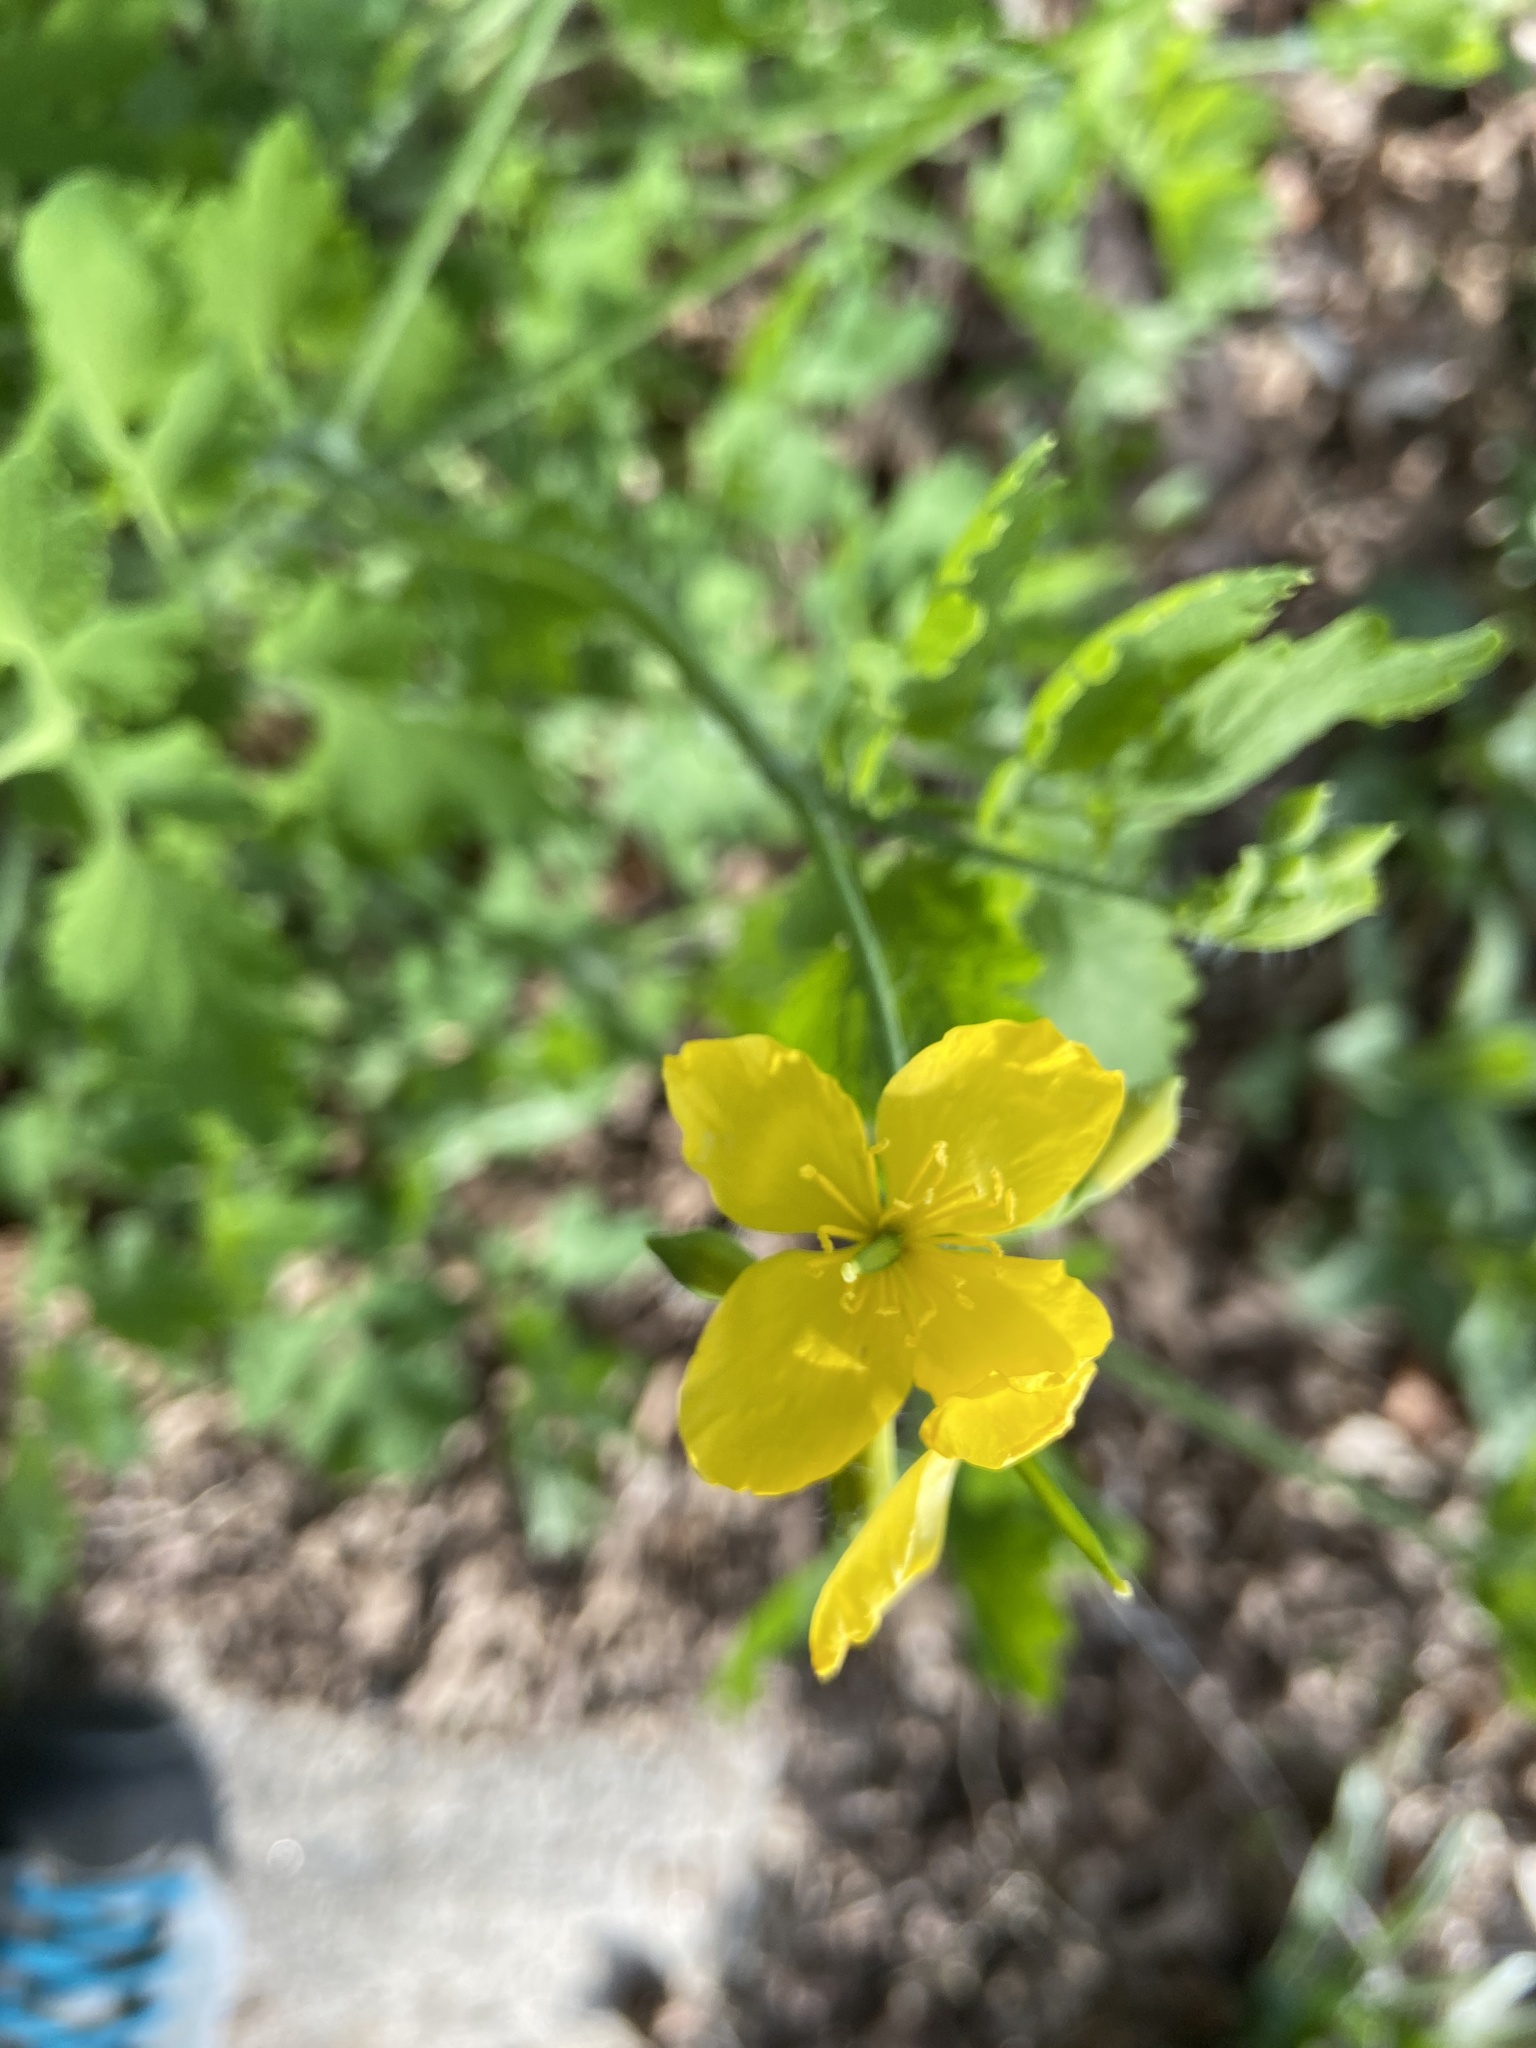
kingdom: Plantae
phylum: Tracheophyta
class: Magnoliopsida
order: Ranunculales
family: Papaveraceae
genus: Chelidonium
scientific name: Chelidonium majus
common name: Greater celandine
